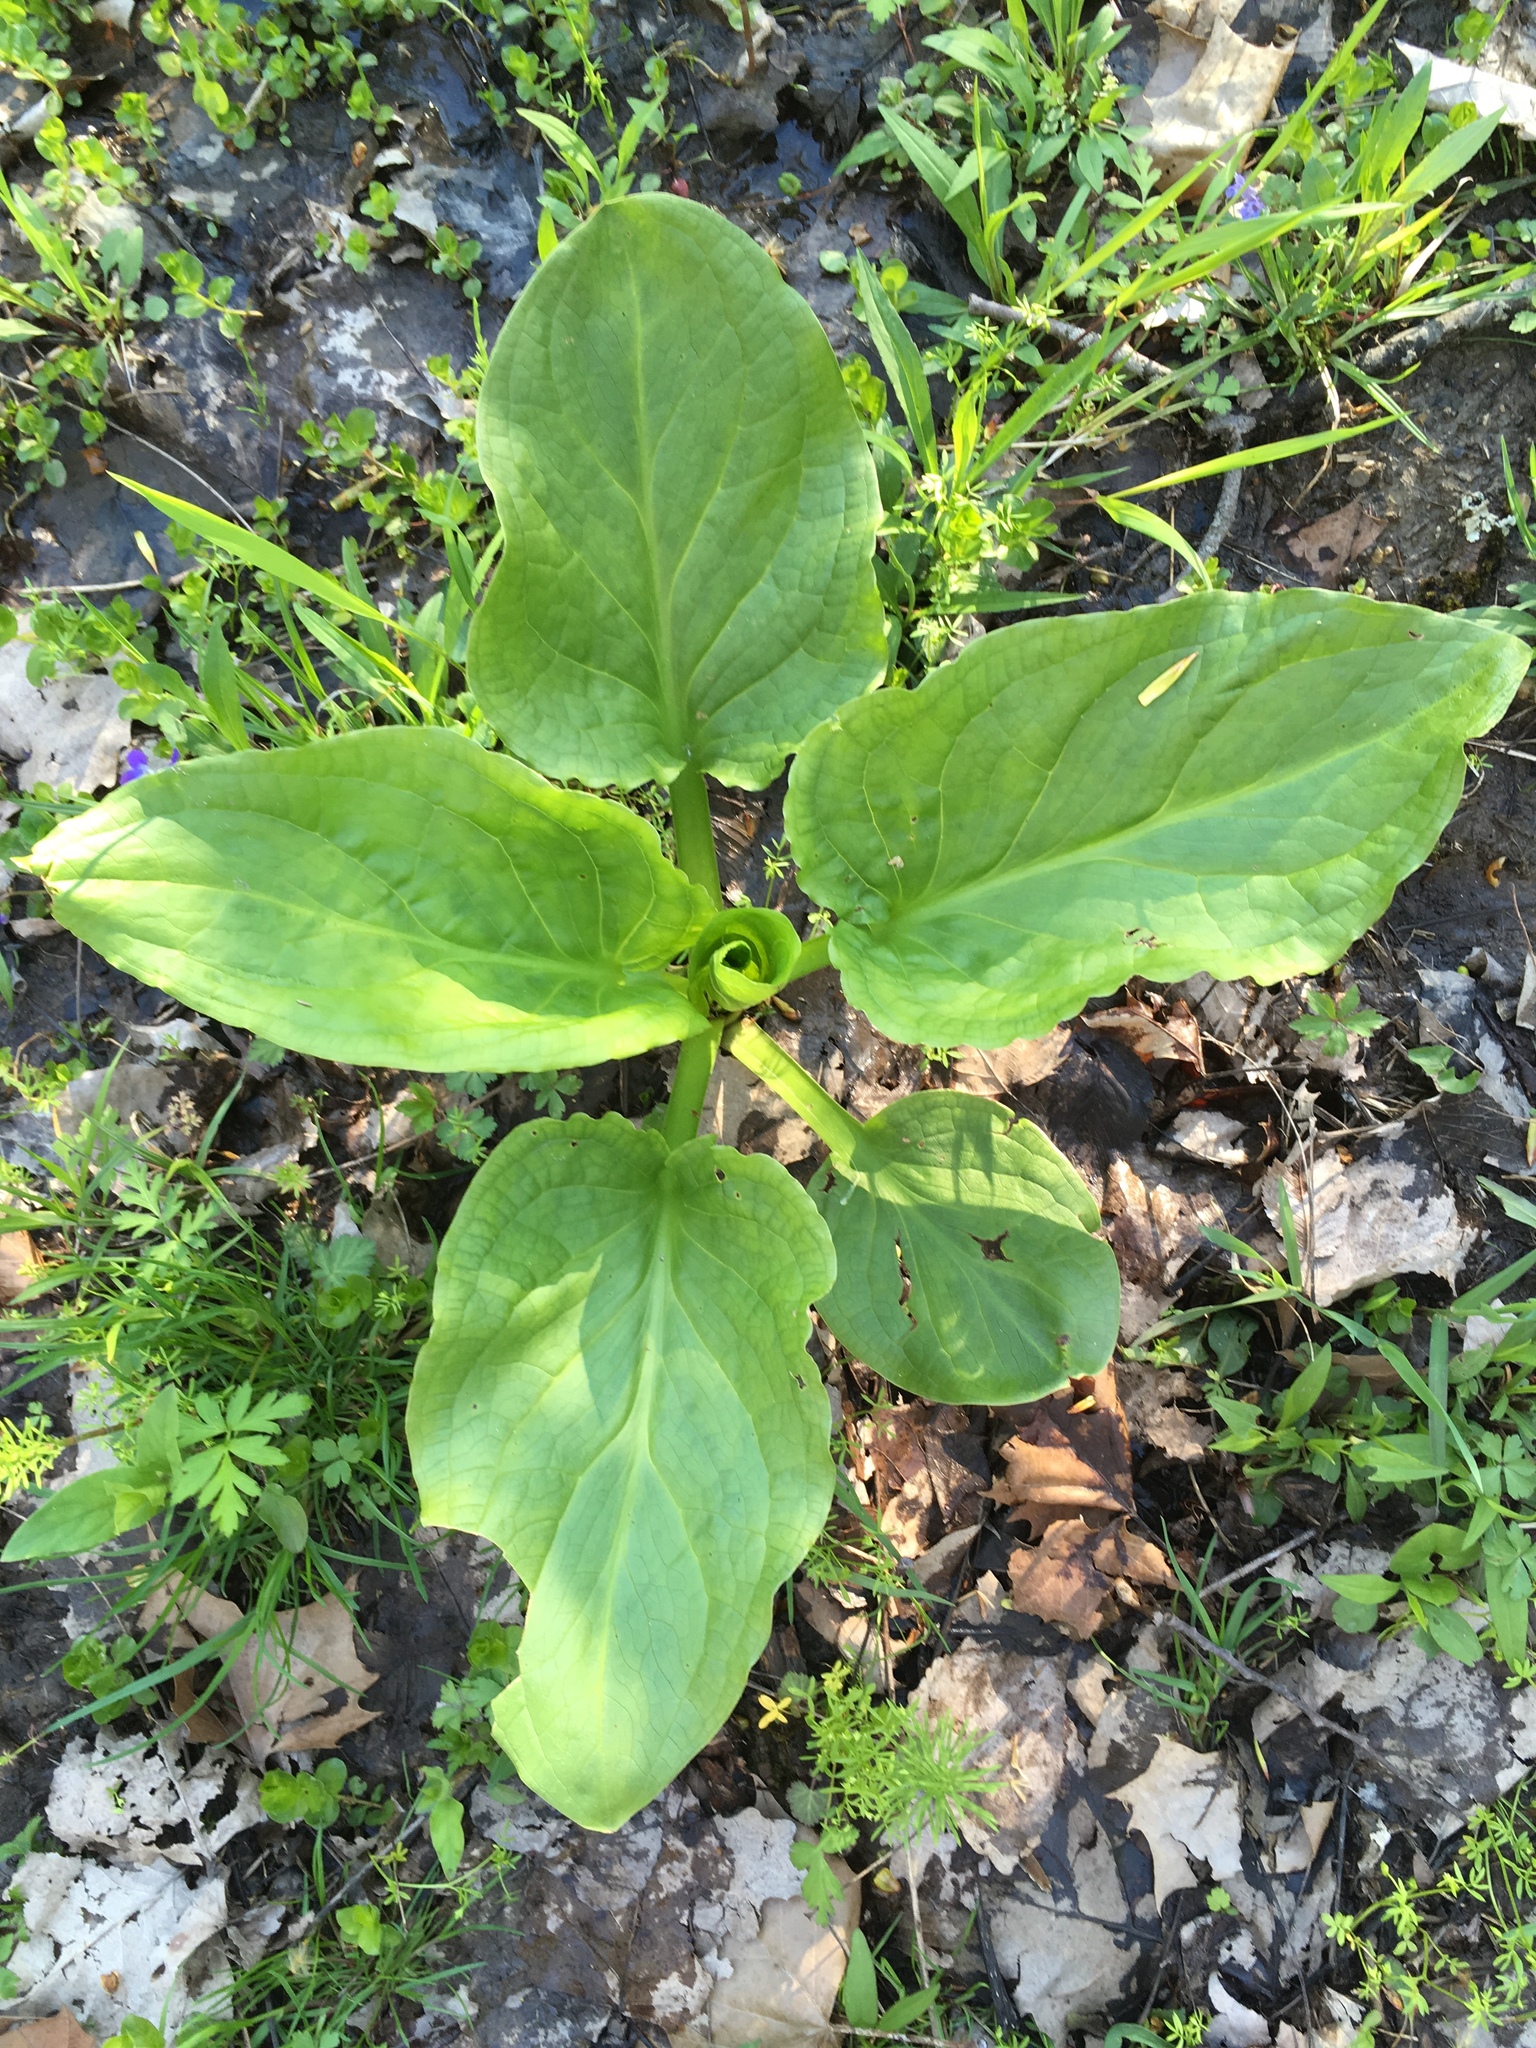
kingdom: Plantae
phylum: Tracheophyta
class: Liliopsida
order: Alismatales
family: Araceae
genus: Symplocarpus
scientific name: Symplocarpus foetidus
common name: Eastern skunk cabbage
